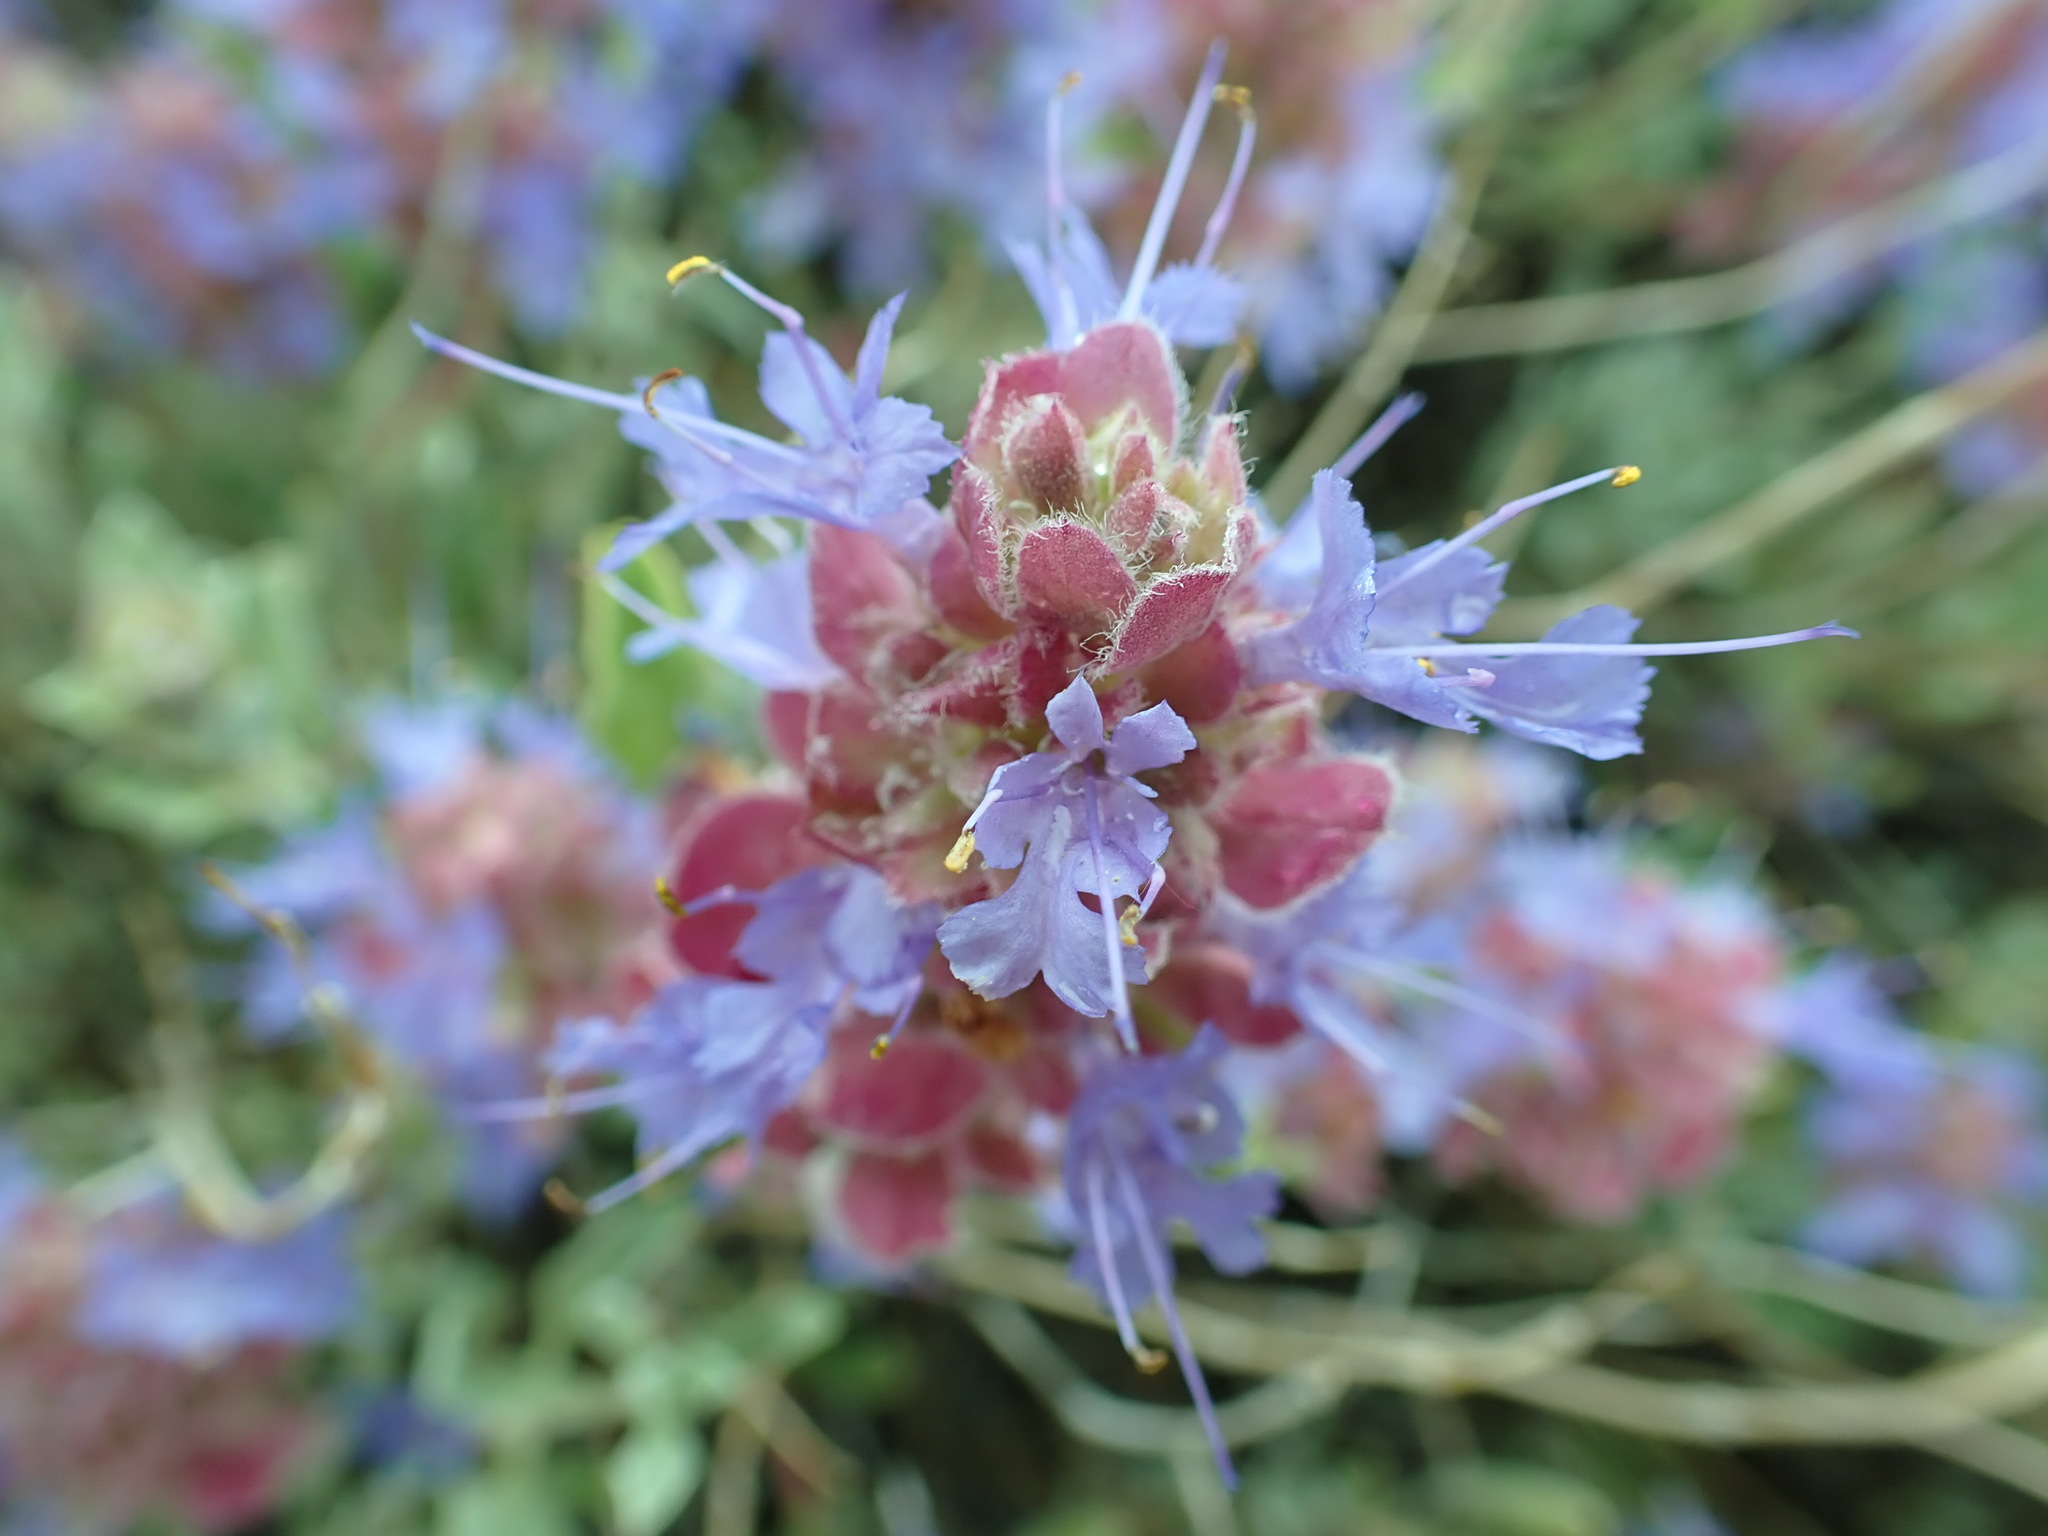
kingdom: Plantae
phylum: Tracheophyta
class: Magnoliopsida
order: Lamiales
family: Lamiaceae
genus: Salvia
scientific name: Salvia dorrii
